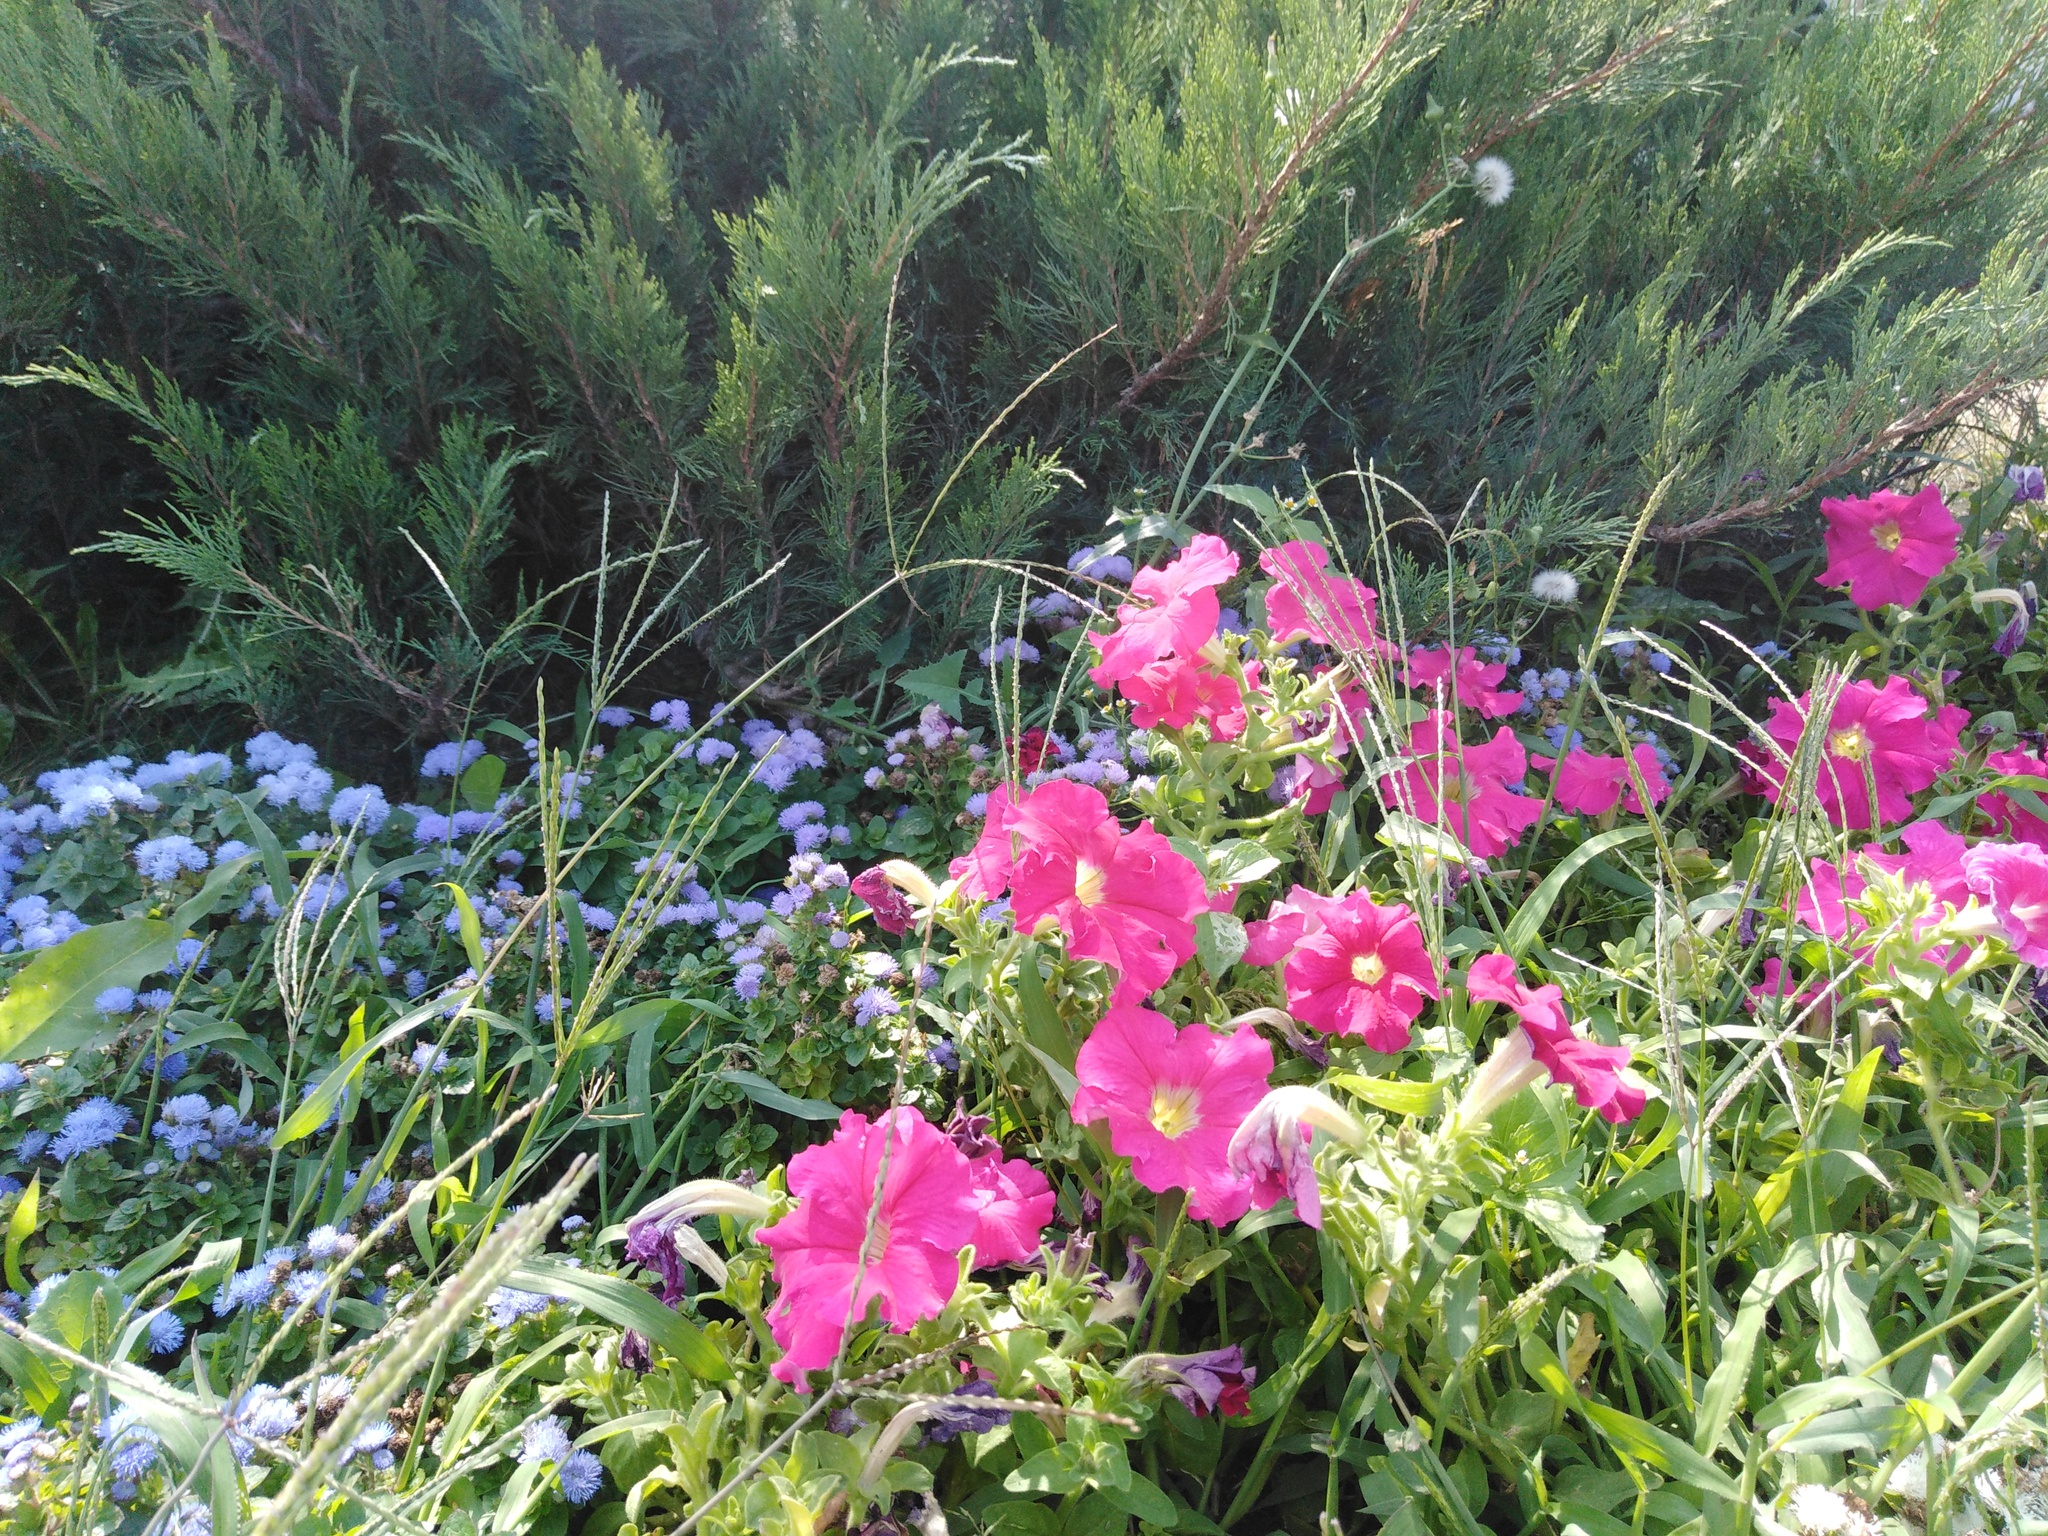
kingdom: Plantae
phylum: Tracheophyta
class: Liliopsida
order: Poales
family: Poaceae
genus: Digitaria
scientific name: Digitaria sanguinalis
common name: Hairy crabgrass
